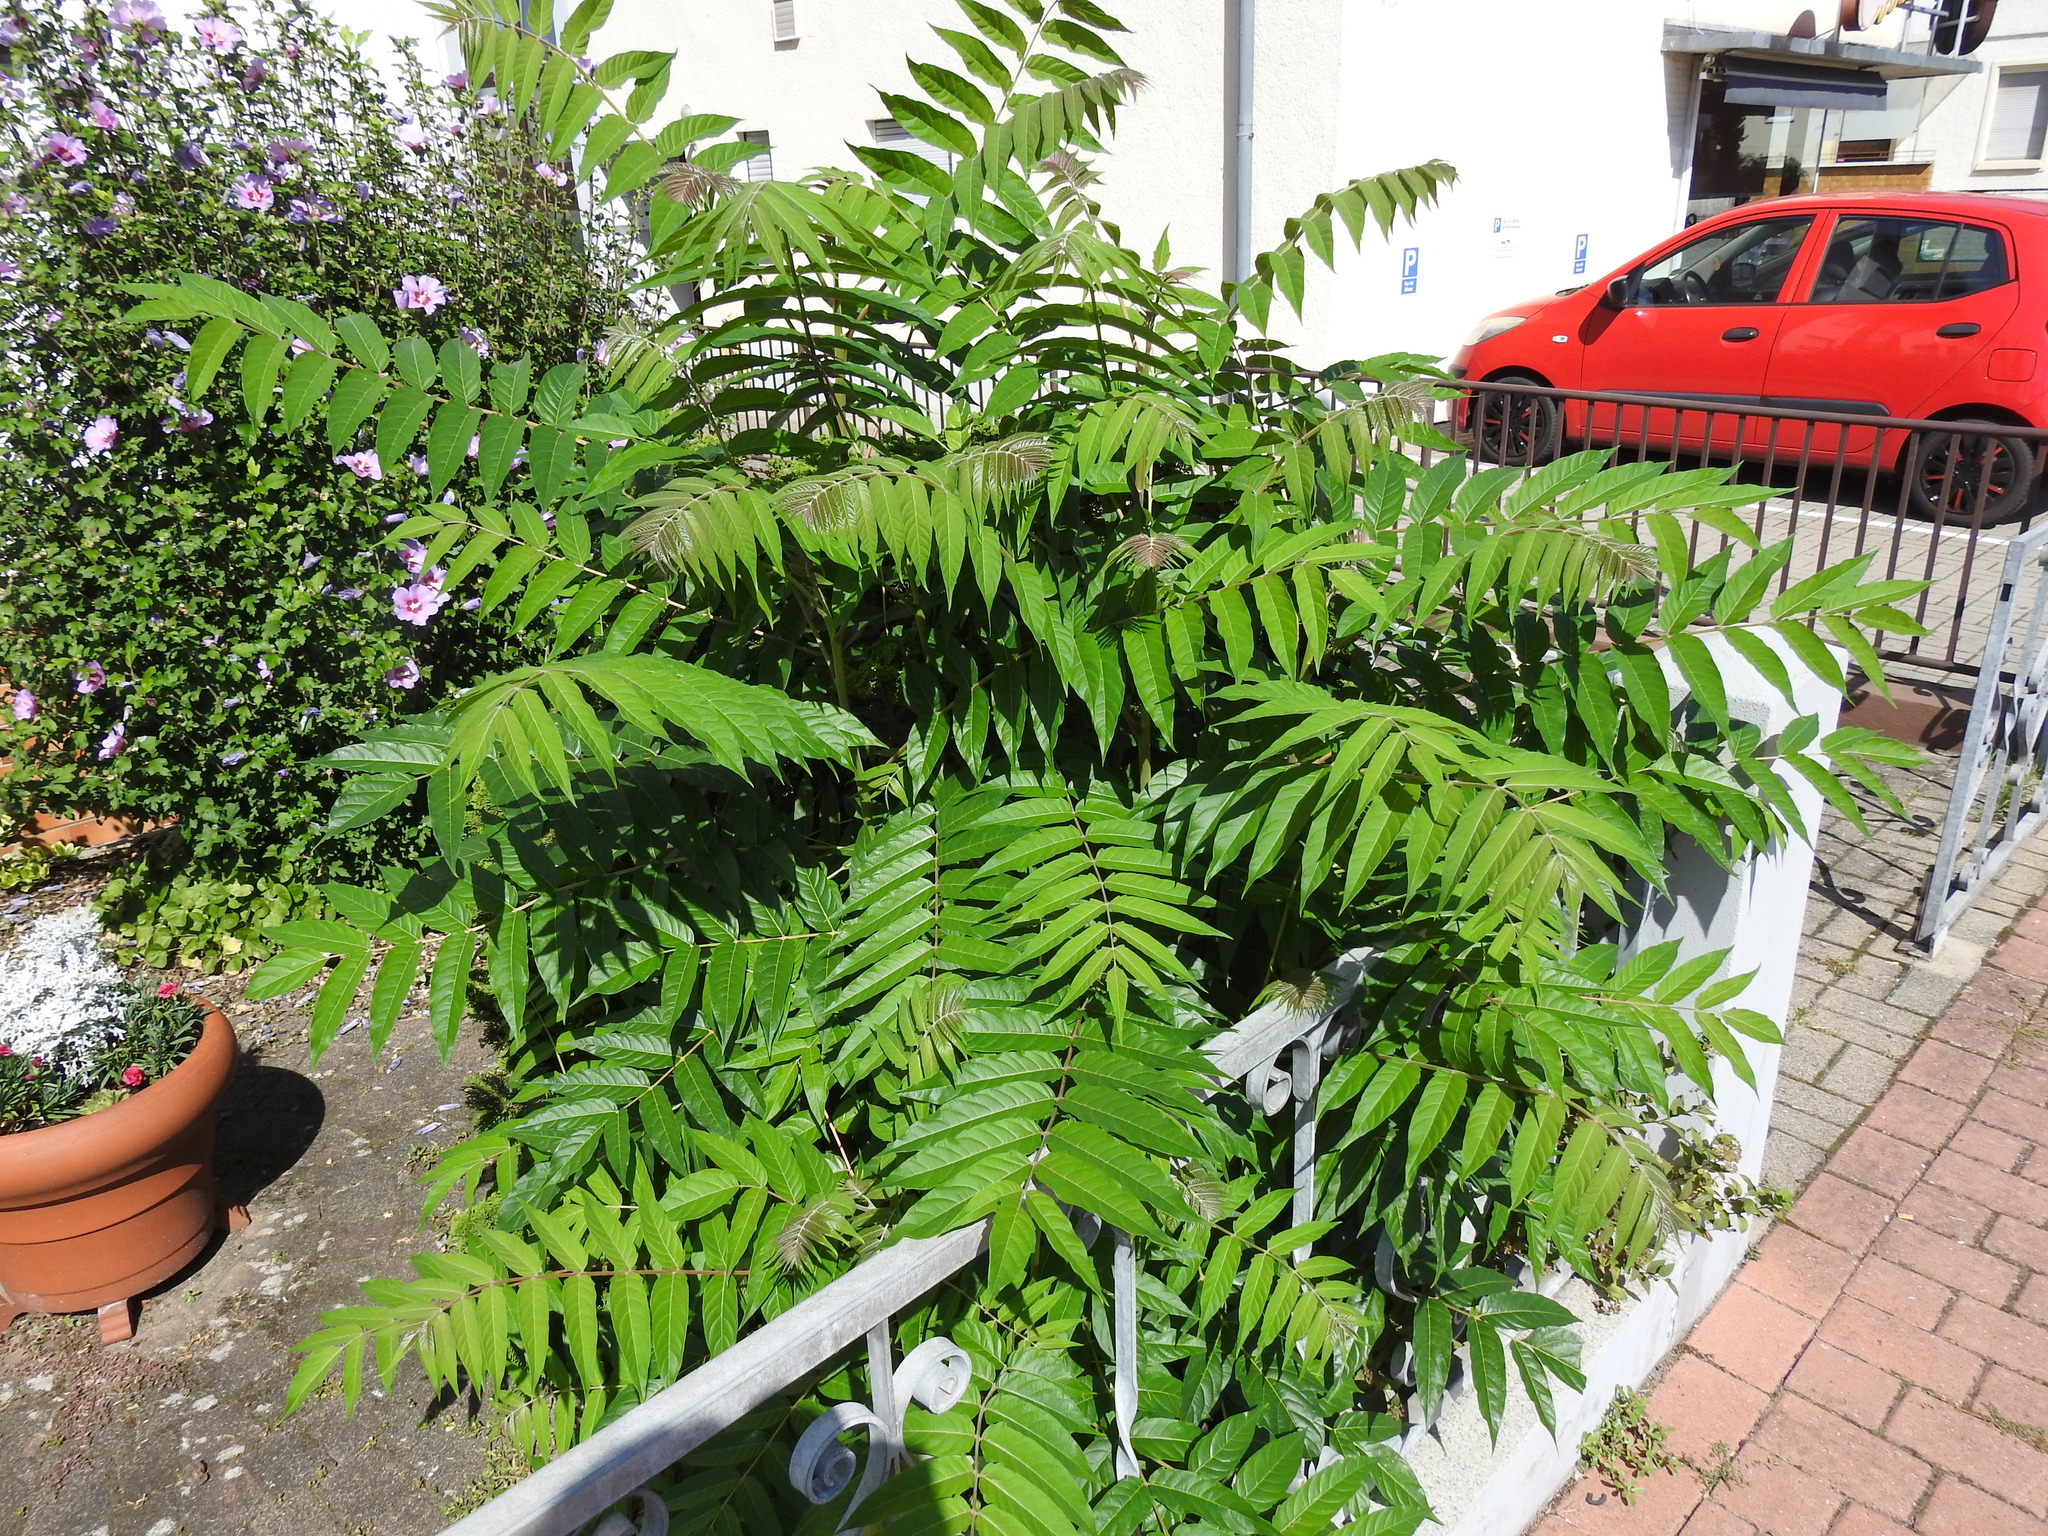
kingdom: Plantae
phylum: Tracheophyta
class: Magnoliopsida
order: Sapindales
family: Simaroubaceae
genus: Ailanthus
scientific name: Ailanthus altissima
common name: Tree-of-heaven
